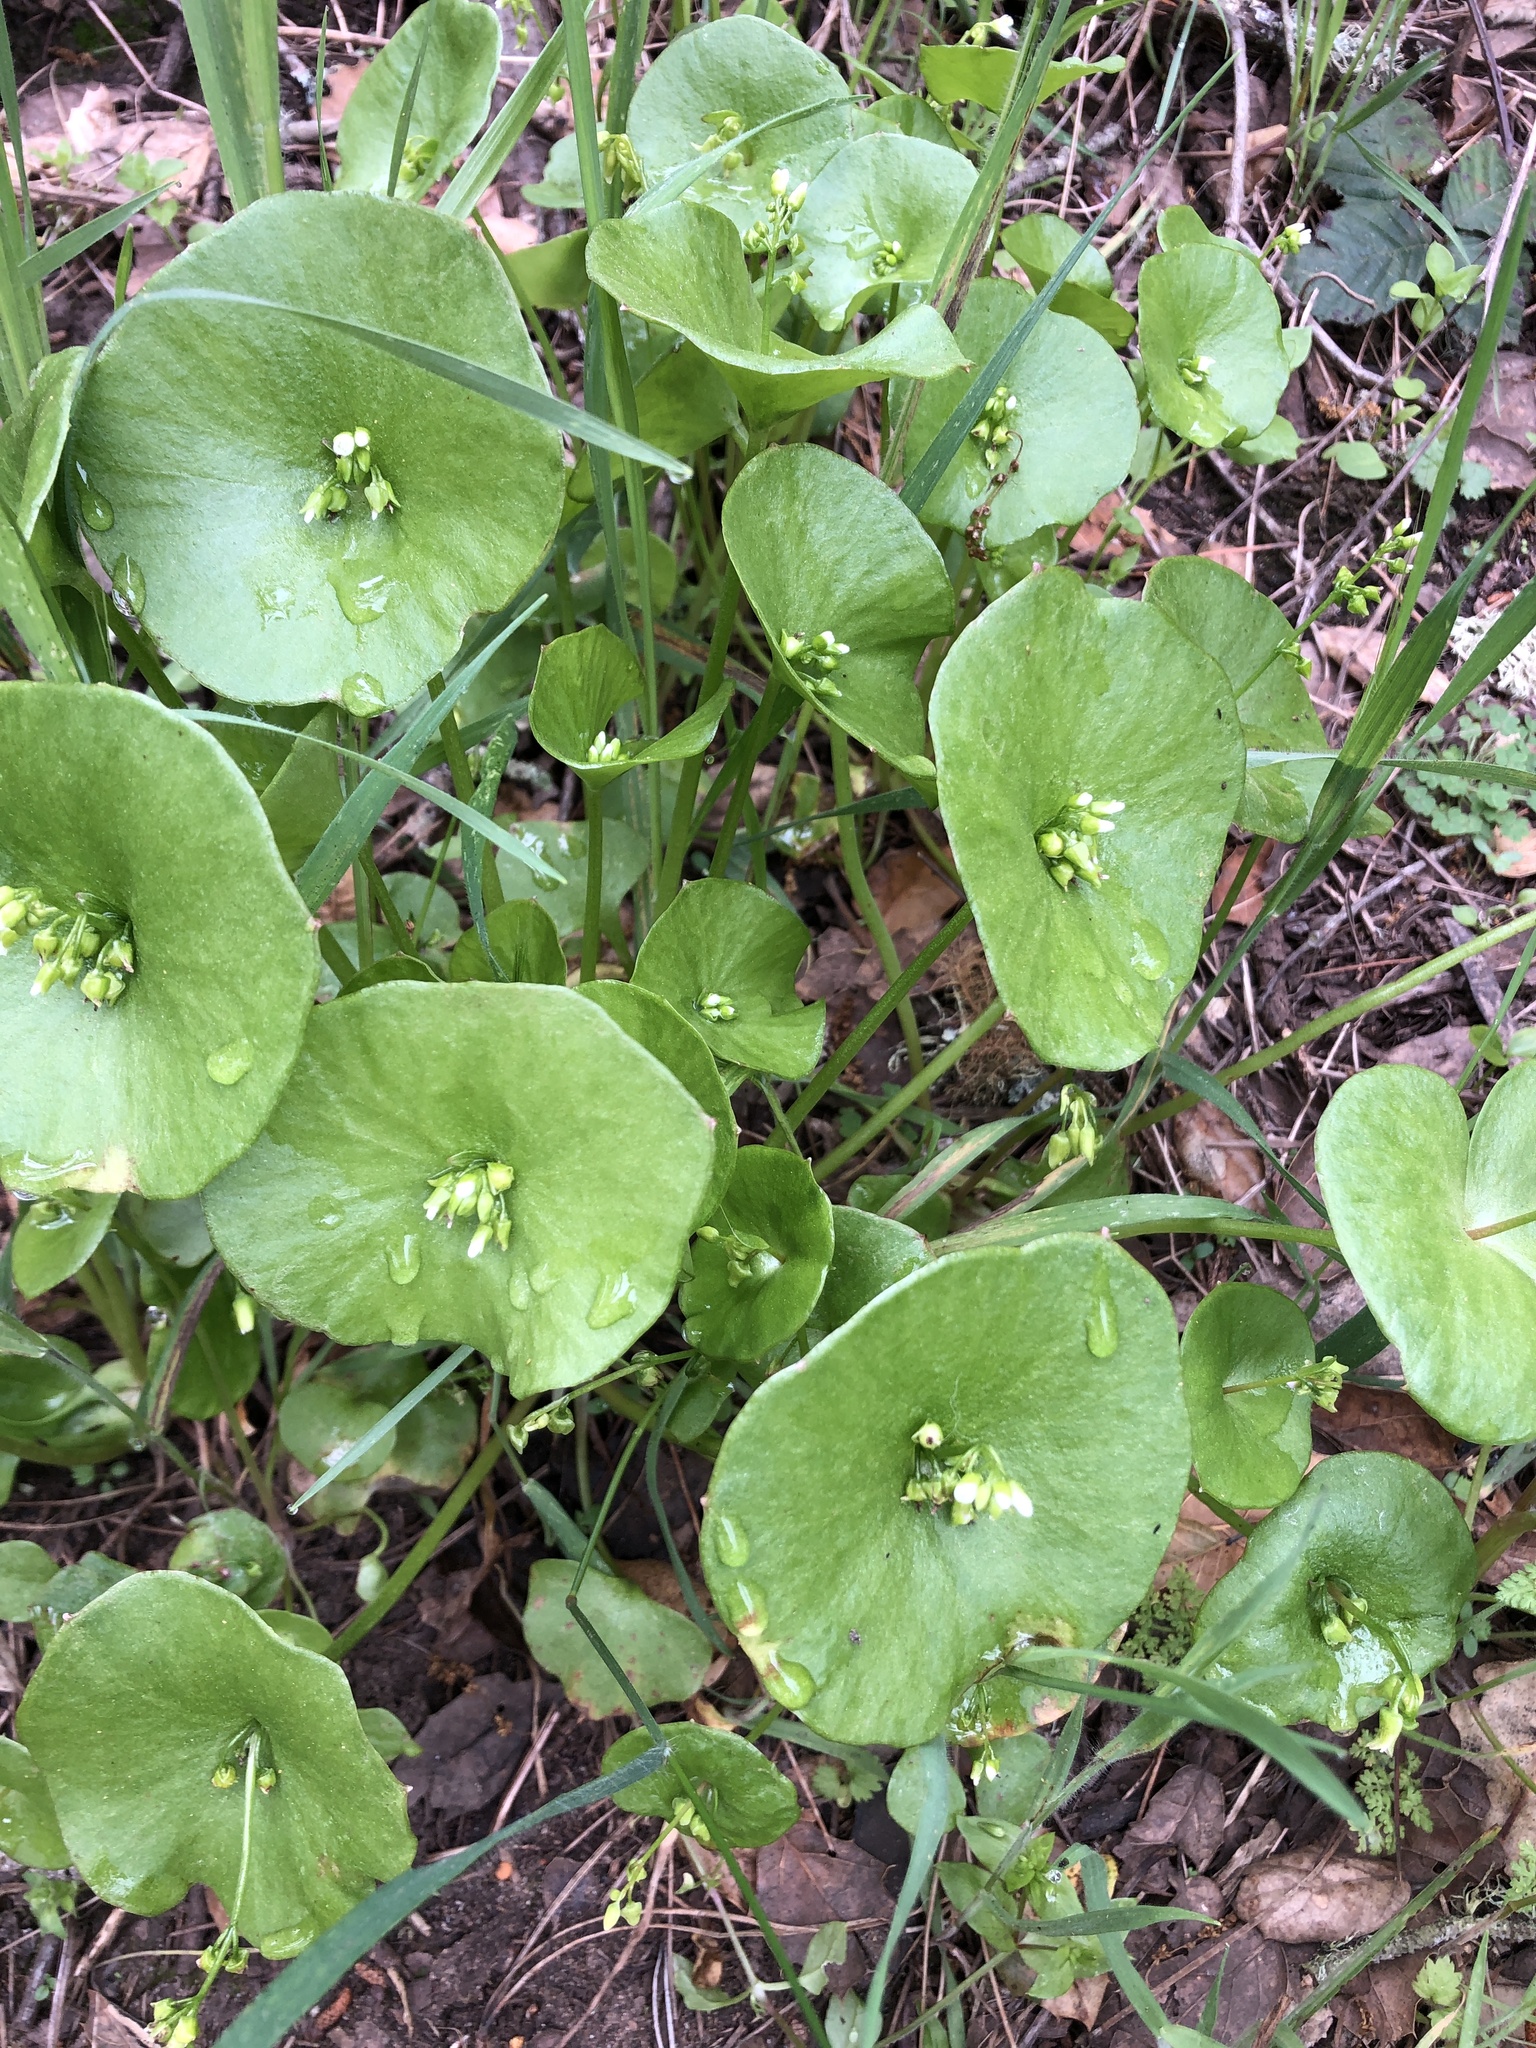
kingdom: Plantae
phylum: Tracheophyta
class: Magnoliopsida
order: Caryophyllales
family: Montiaceae
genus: Claytonia
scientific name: Claytonia perfoliata
